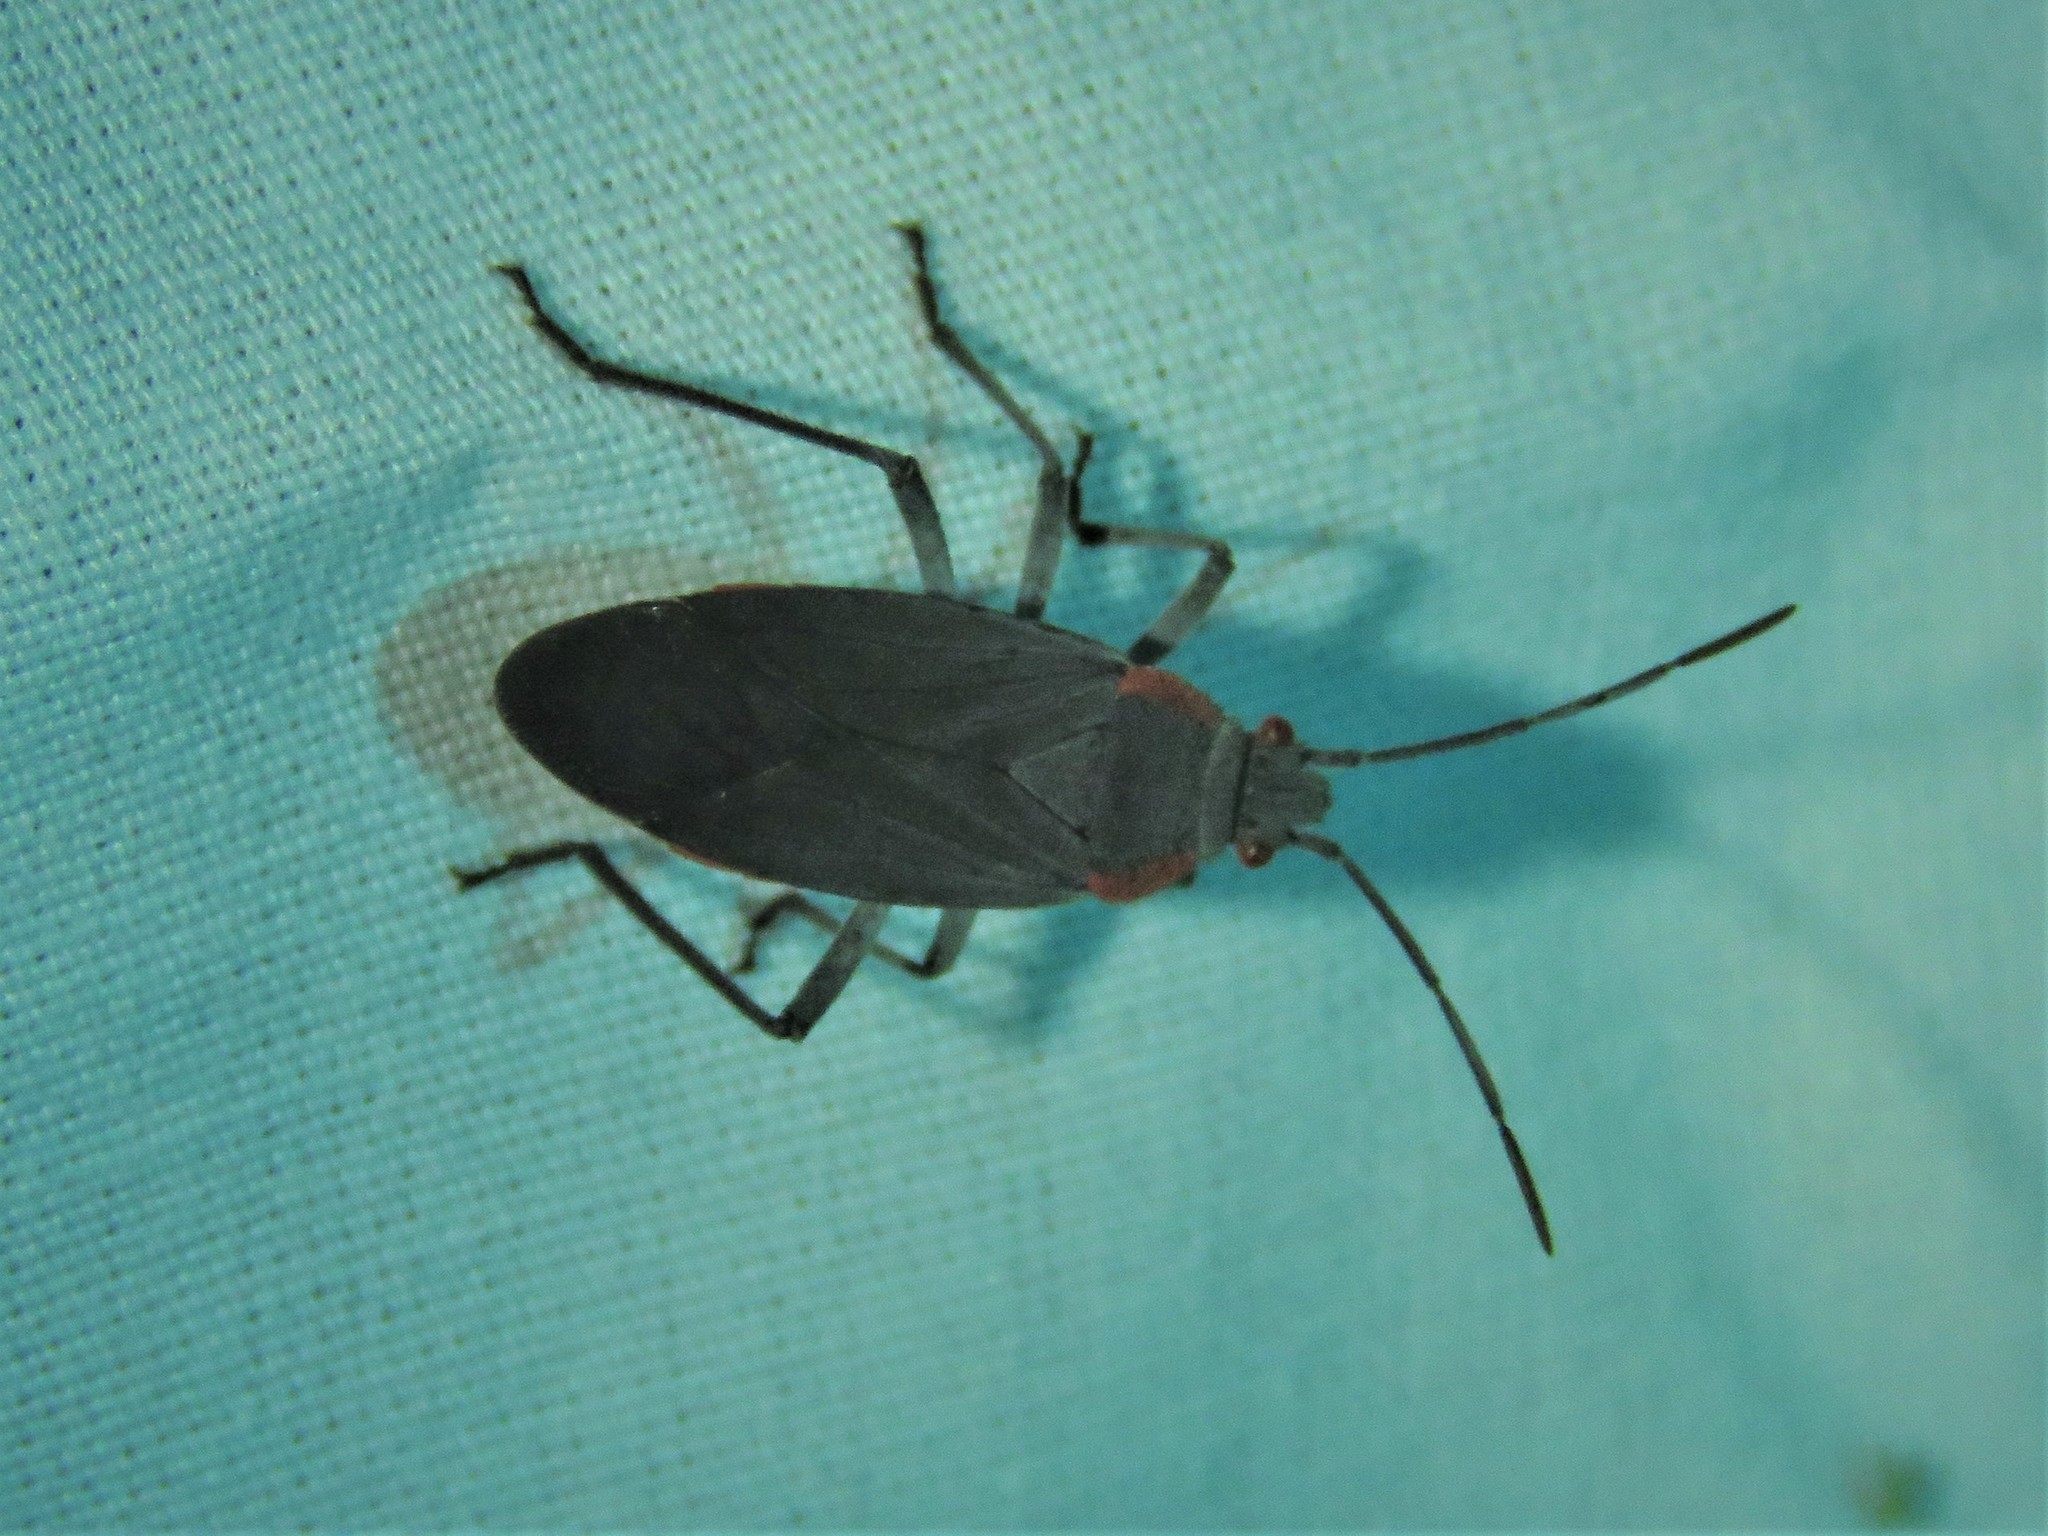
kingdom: Animalia
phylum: Arthropoda
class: Insecta
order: Hemiptera
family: Rhopalidae
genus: Jadera
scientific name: Jadera haematoloma
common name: Red-shouldered bug
